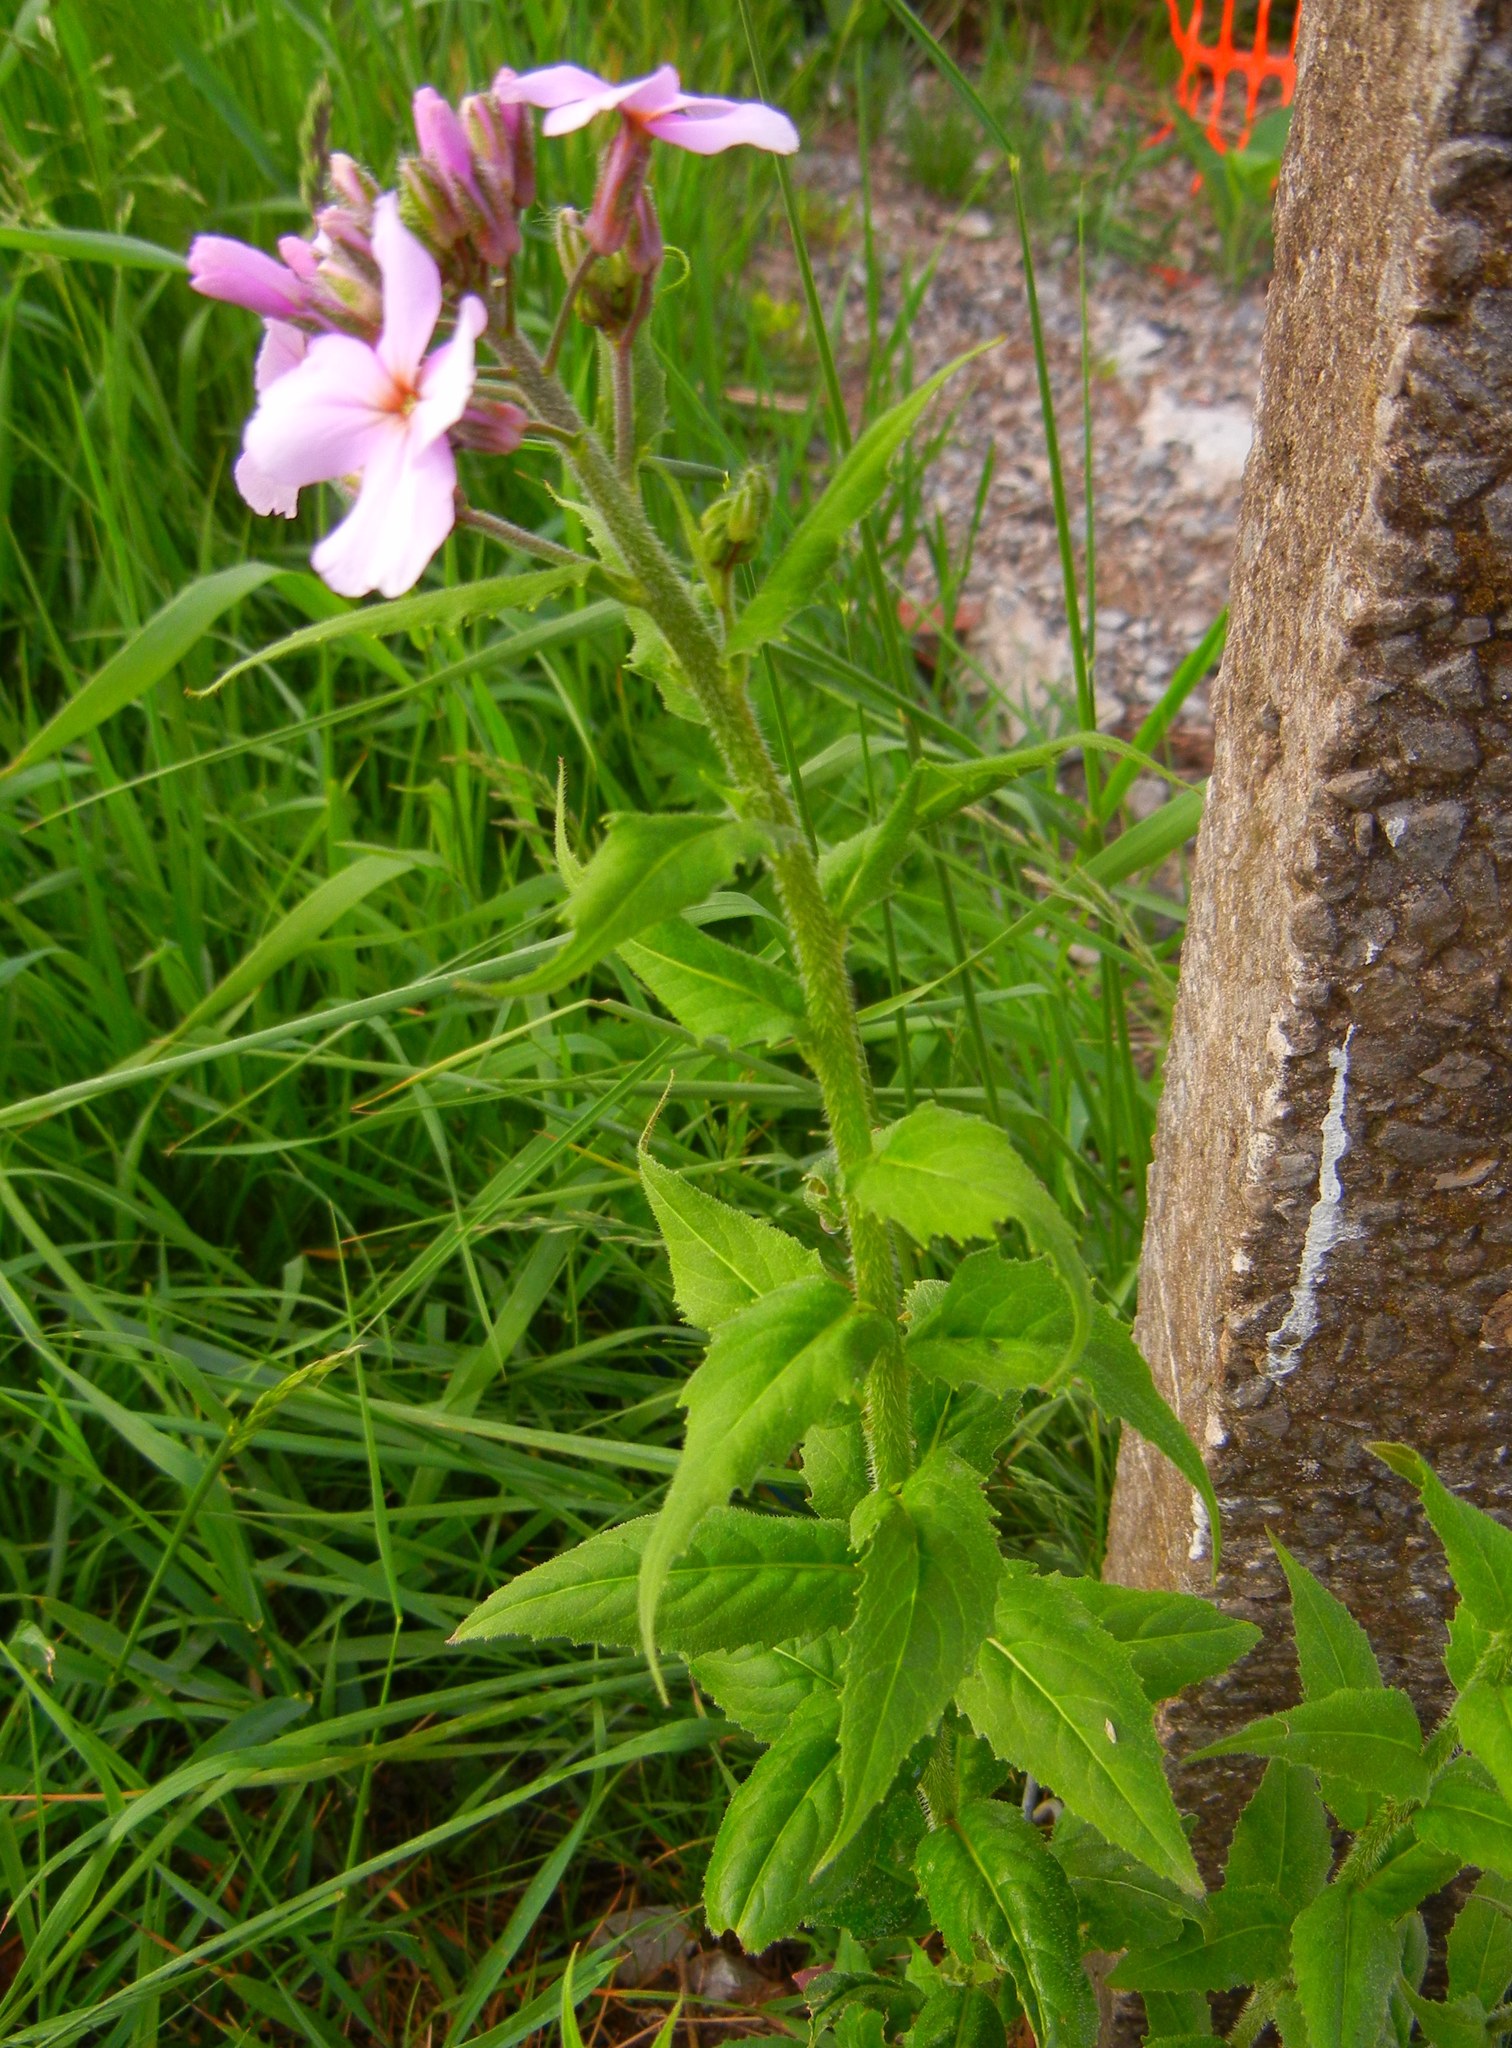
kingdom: Plantae
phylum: Tracheophyta
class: Magnoliopsida
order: Brassicales
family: Brassicaceae
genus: Hesperis
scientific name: Hesperis matronalis
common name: Dame's-violet
